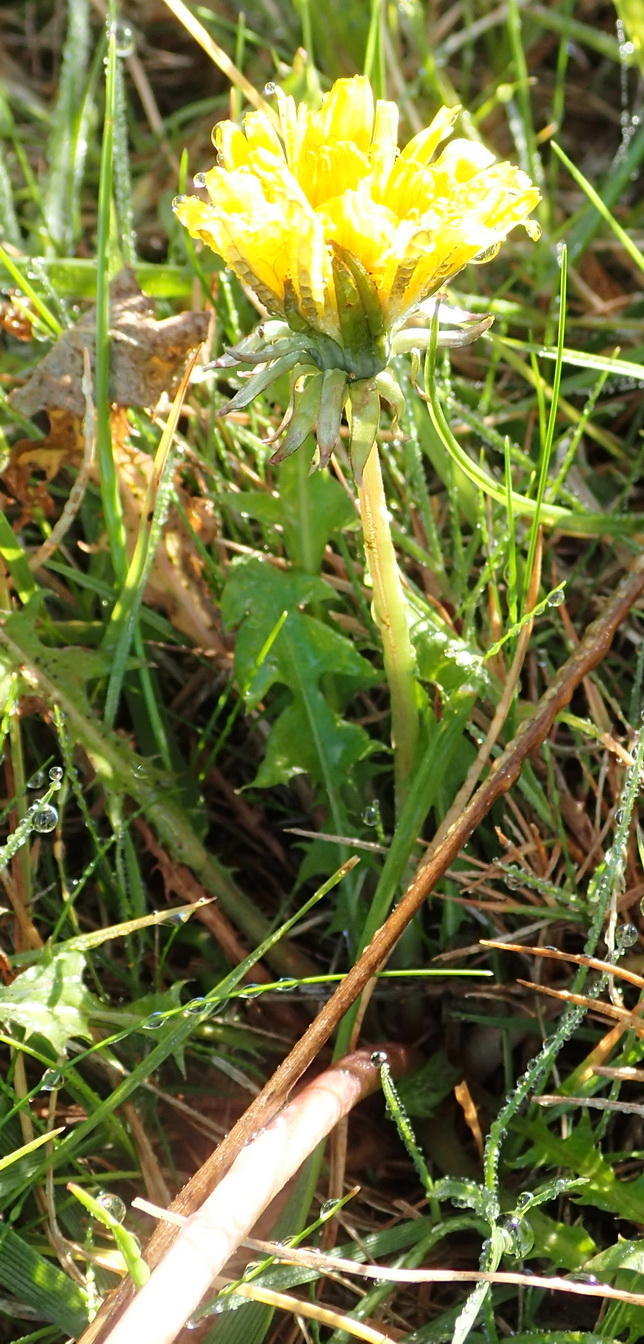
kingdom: Plantae
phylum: Tracheophyta
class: Magnoliopsida
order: Asterales
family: Asteraceae
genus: Taraxacum
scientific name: Taraxacum officinale
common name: Common dandelion
